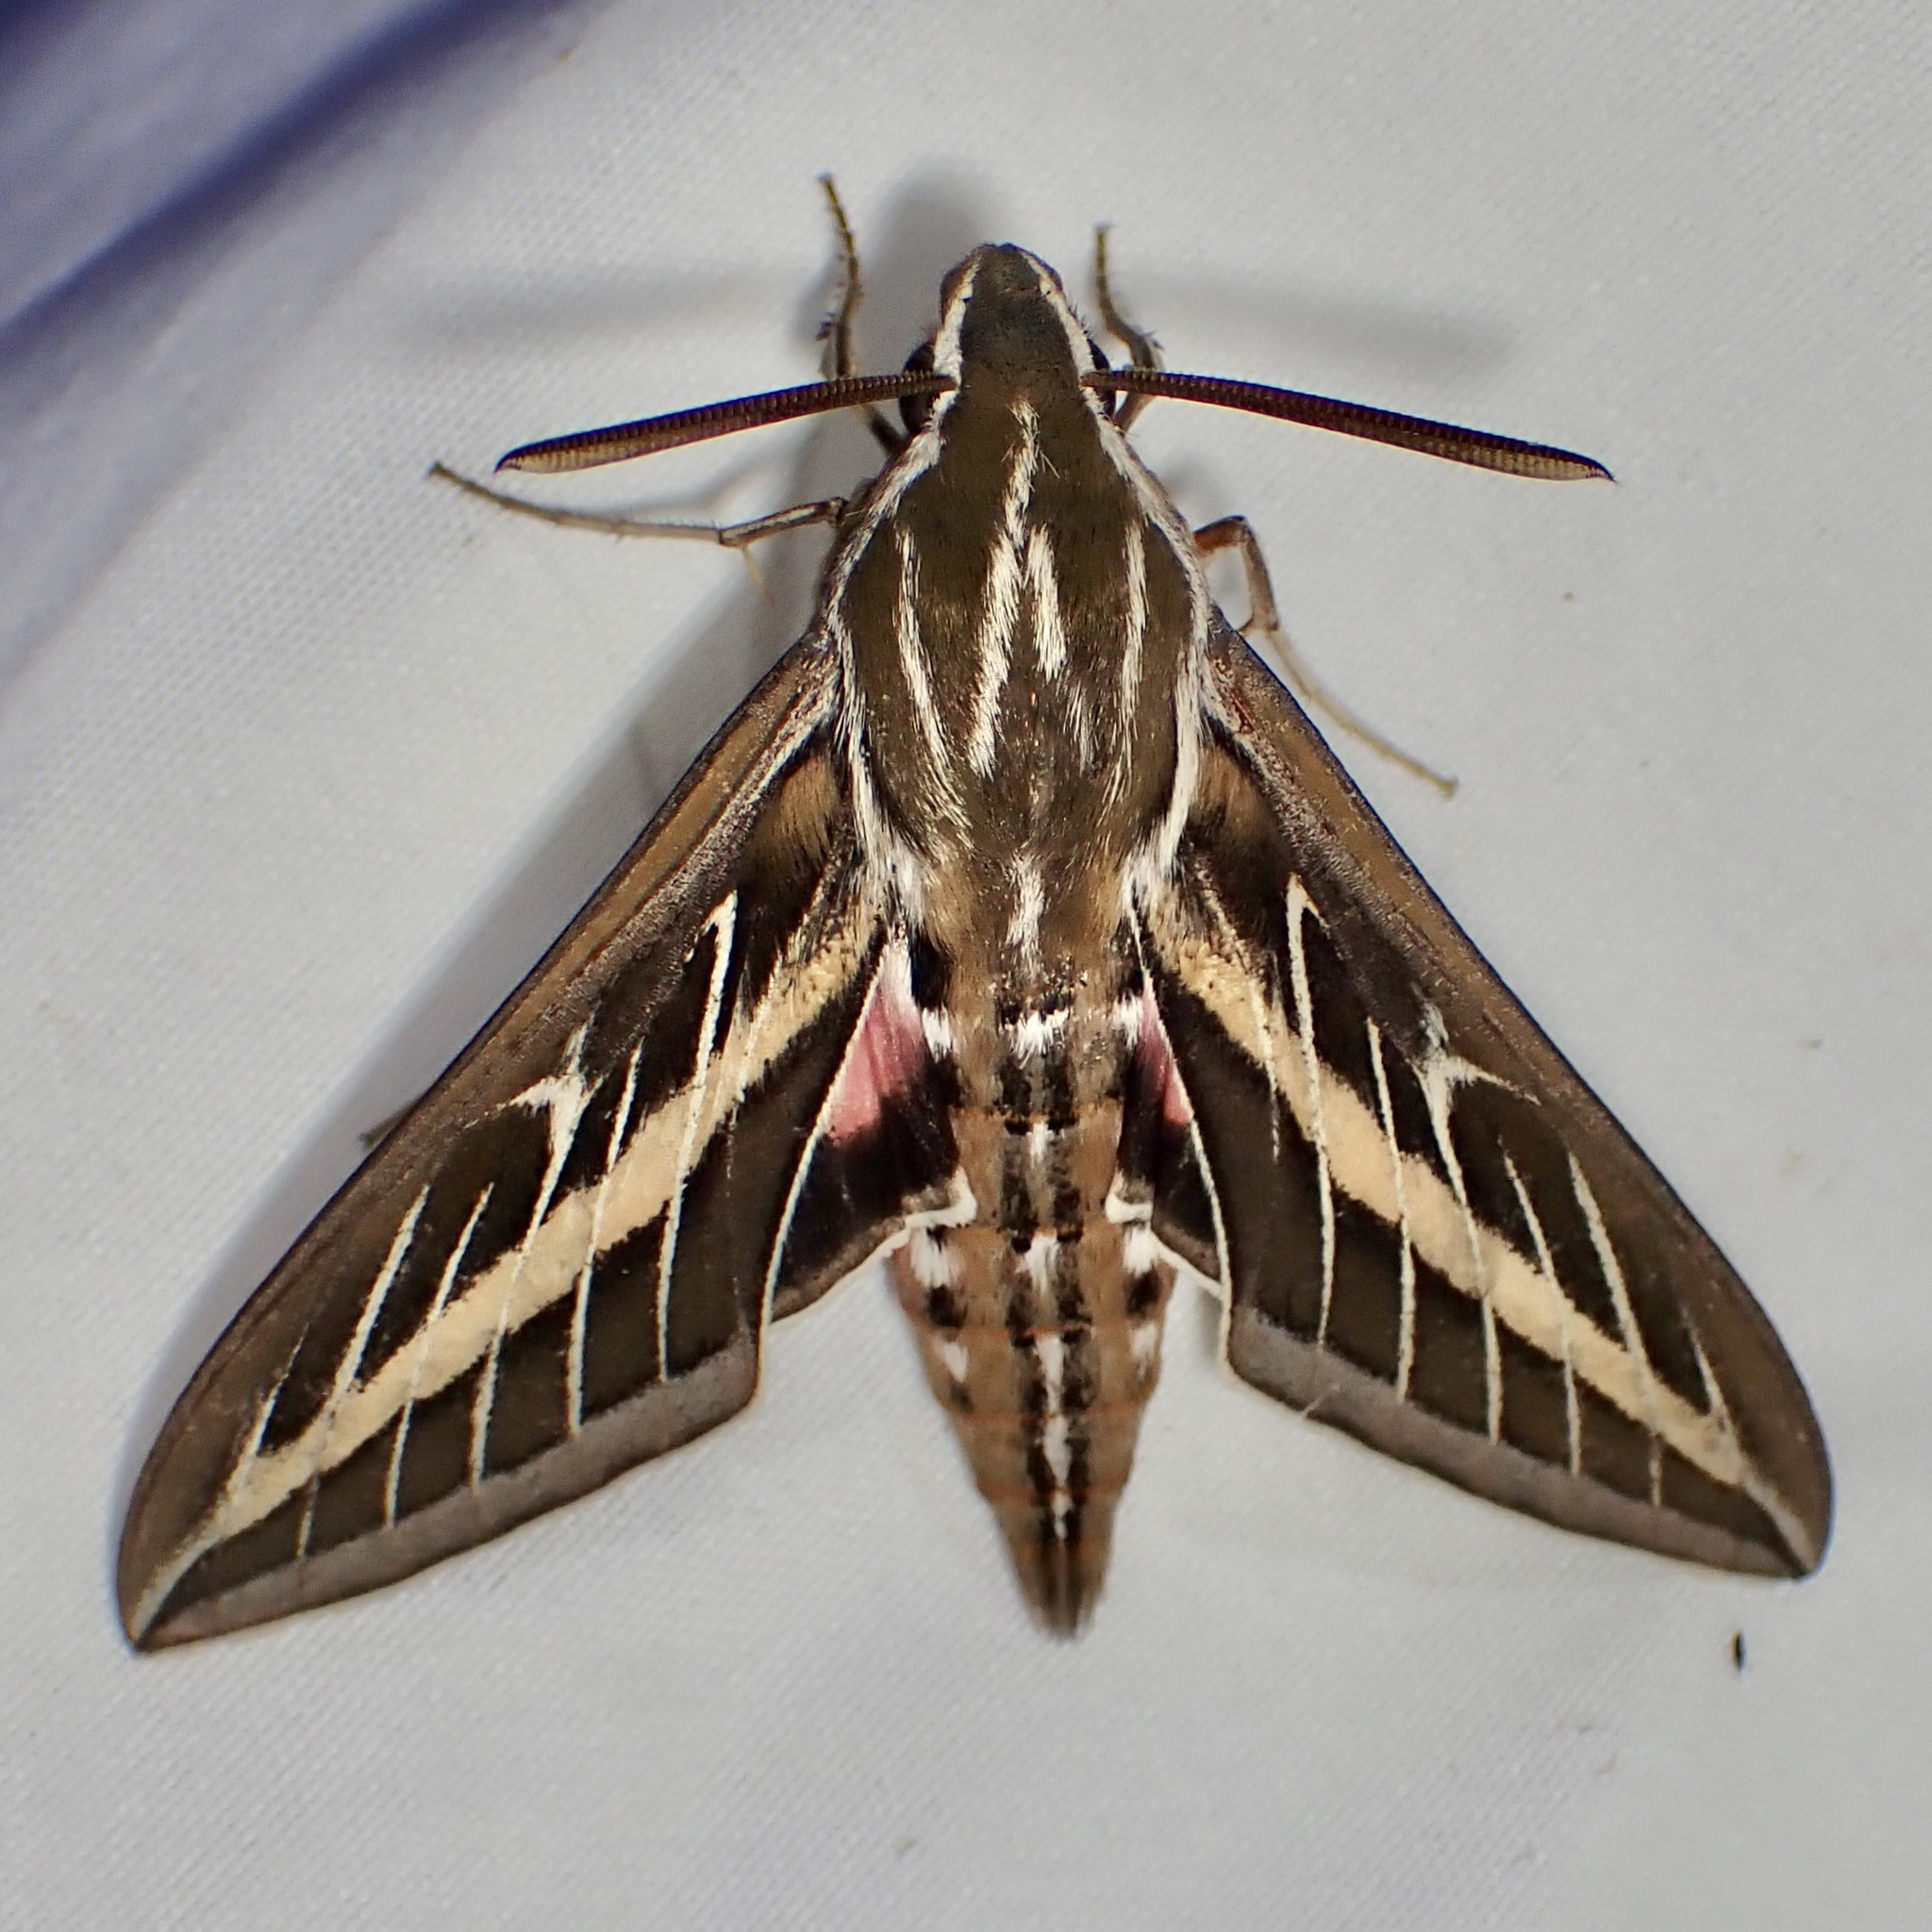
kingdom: Animalia
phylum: Arthropoda
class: Insecta
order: Lepidoptera
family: Sphingidae
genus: Hyles
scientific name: Hyles lineata
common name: White-lined sphinx
